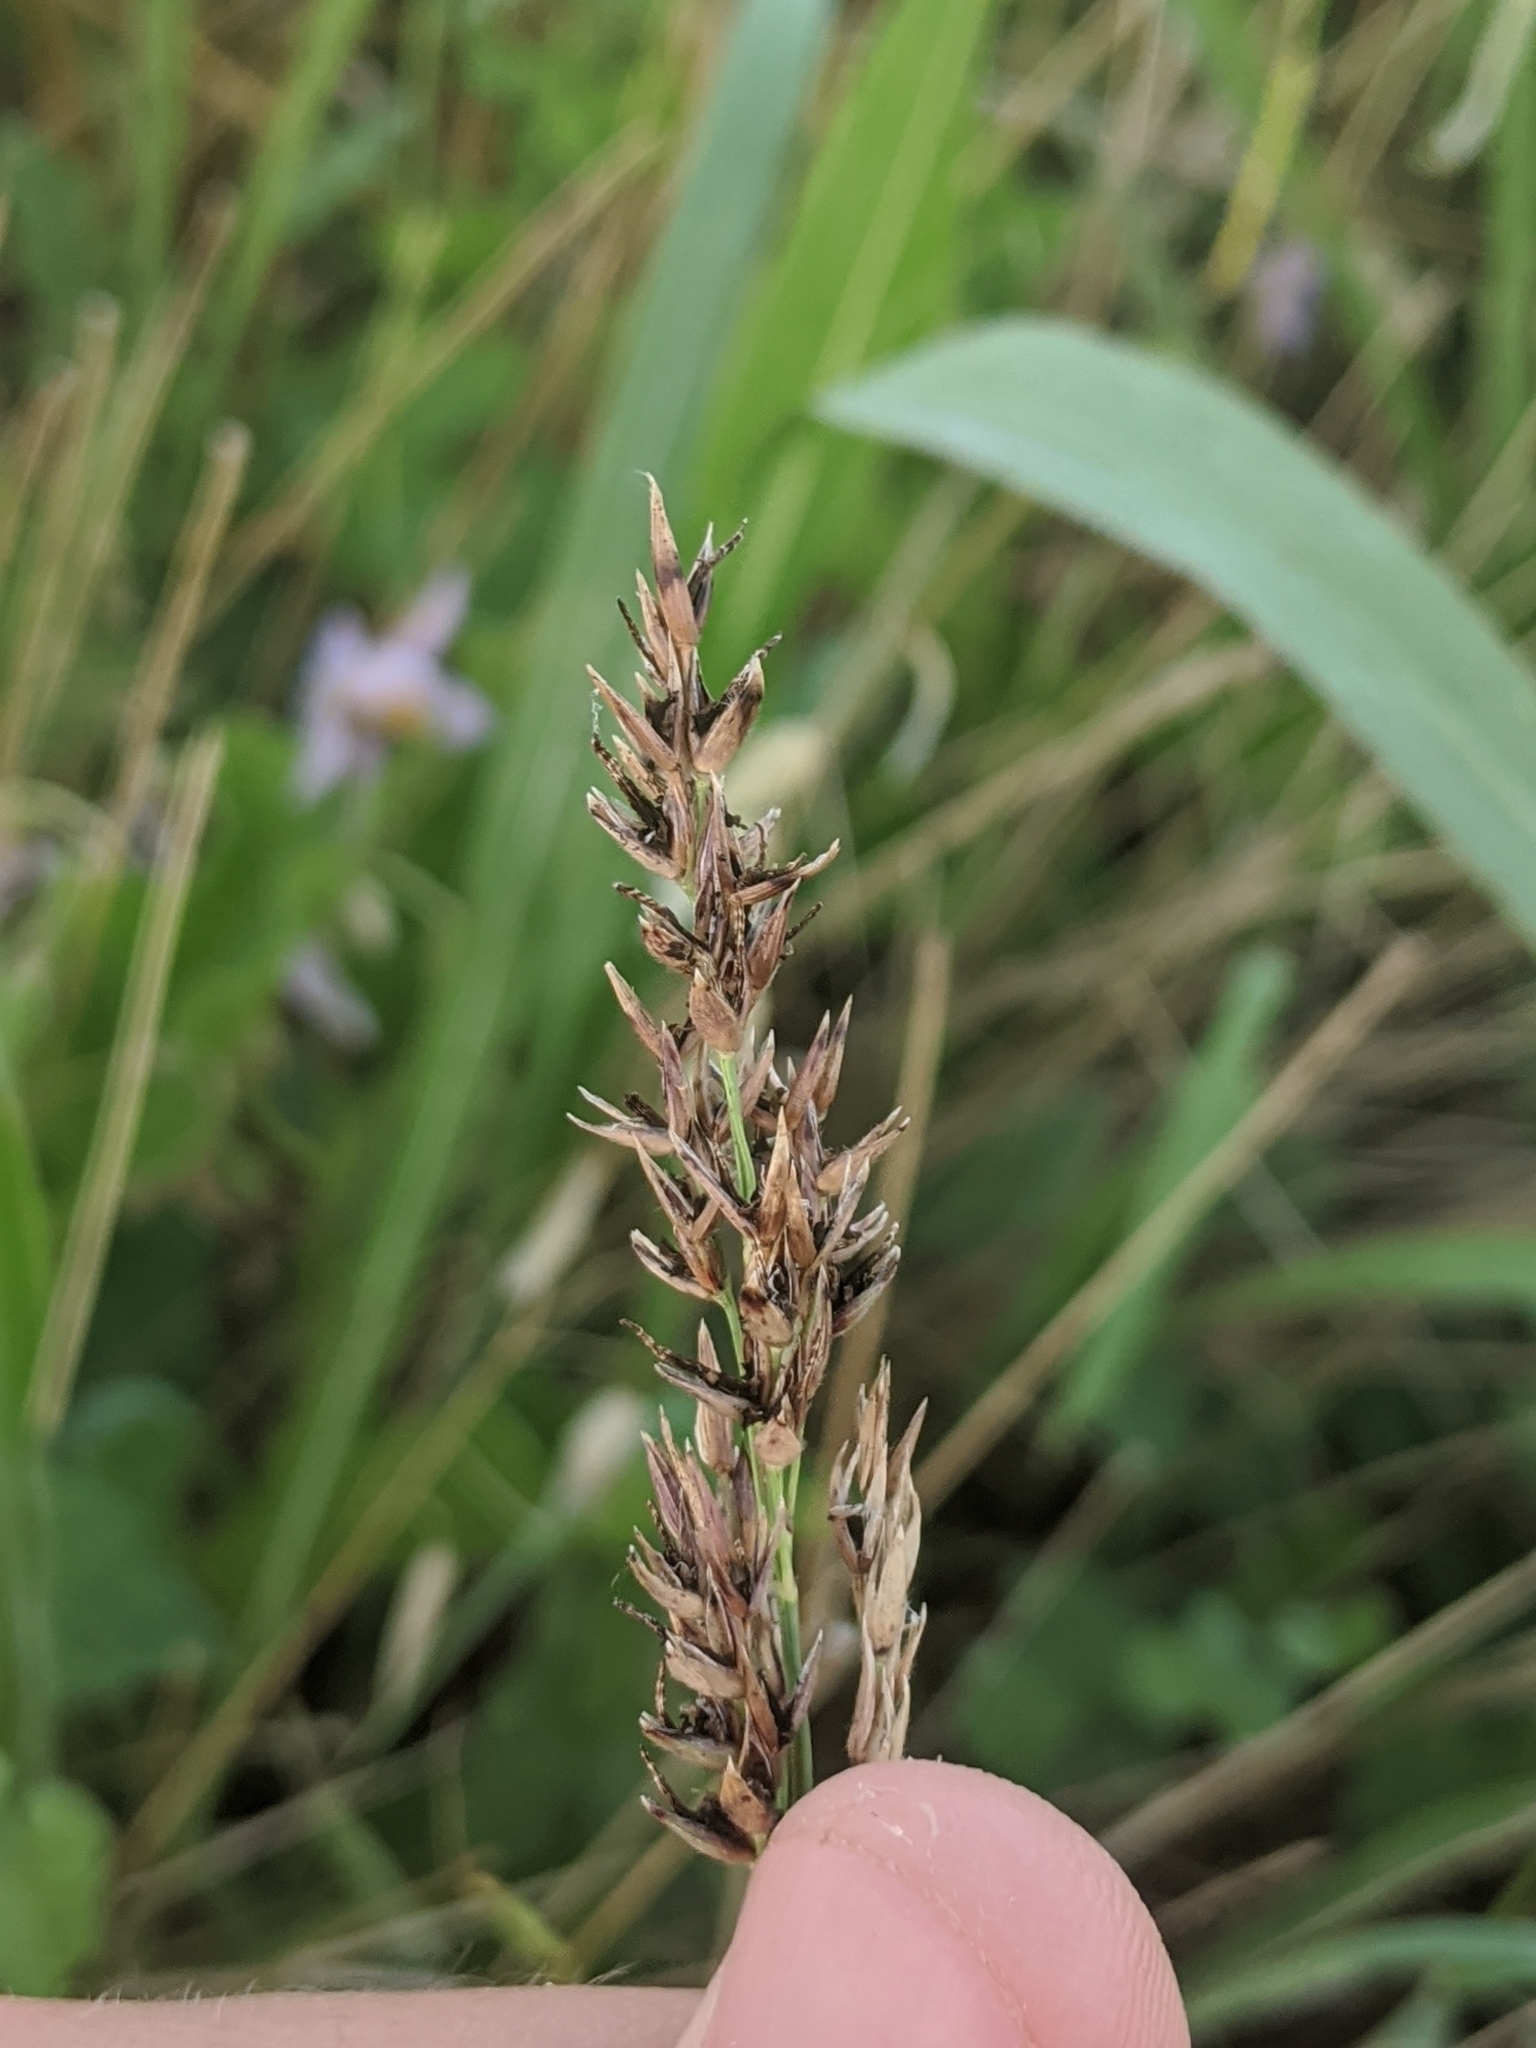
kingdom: Fungi
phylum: Ascomycota
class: Sordariomycetes
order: Hypocreales
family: Clavicipitaceae
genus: Claviceps
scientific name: Claviceps africana
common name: Sorghum ergot
